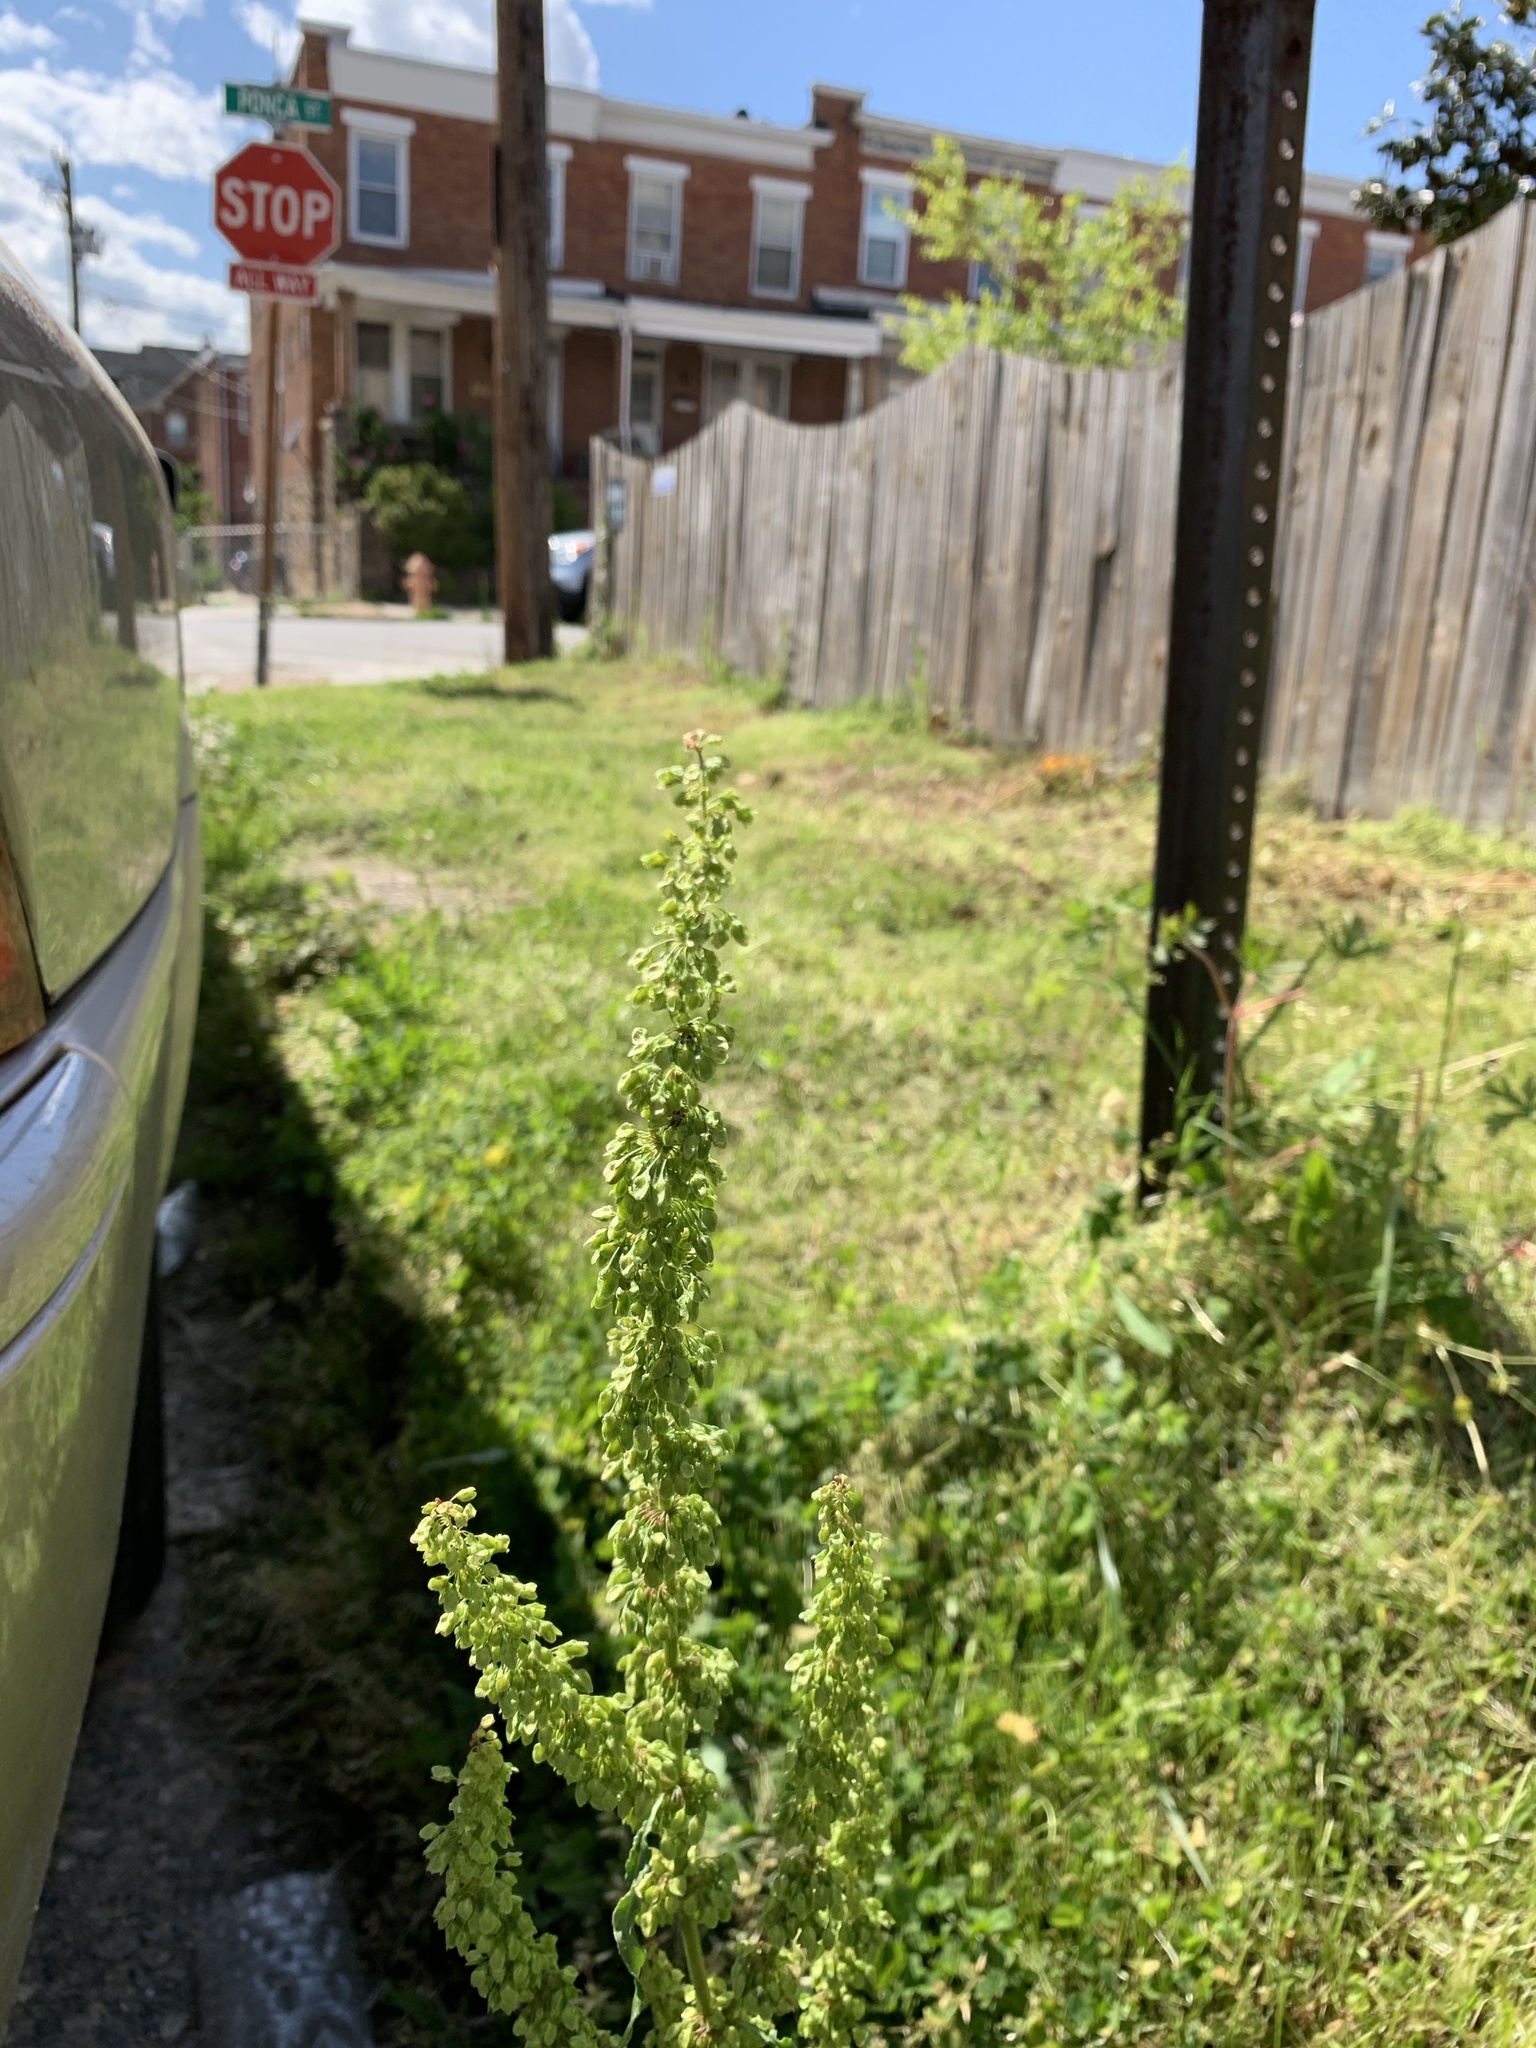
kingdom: Plantae
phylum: Tracheophyta
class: Magnoliopsida
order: Caryophyllales
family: Polygonaceae
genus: Rumex
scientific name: Rumex crispus
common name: Curled dock
